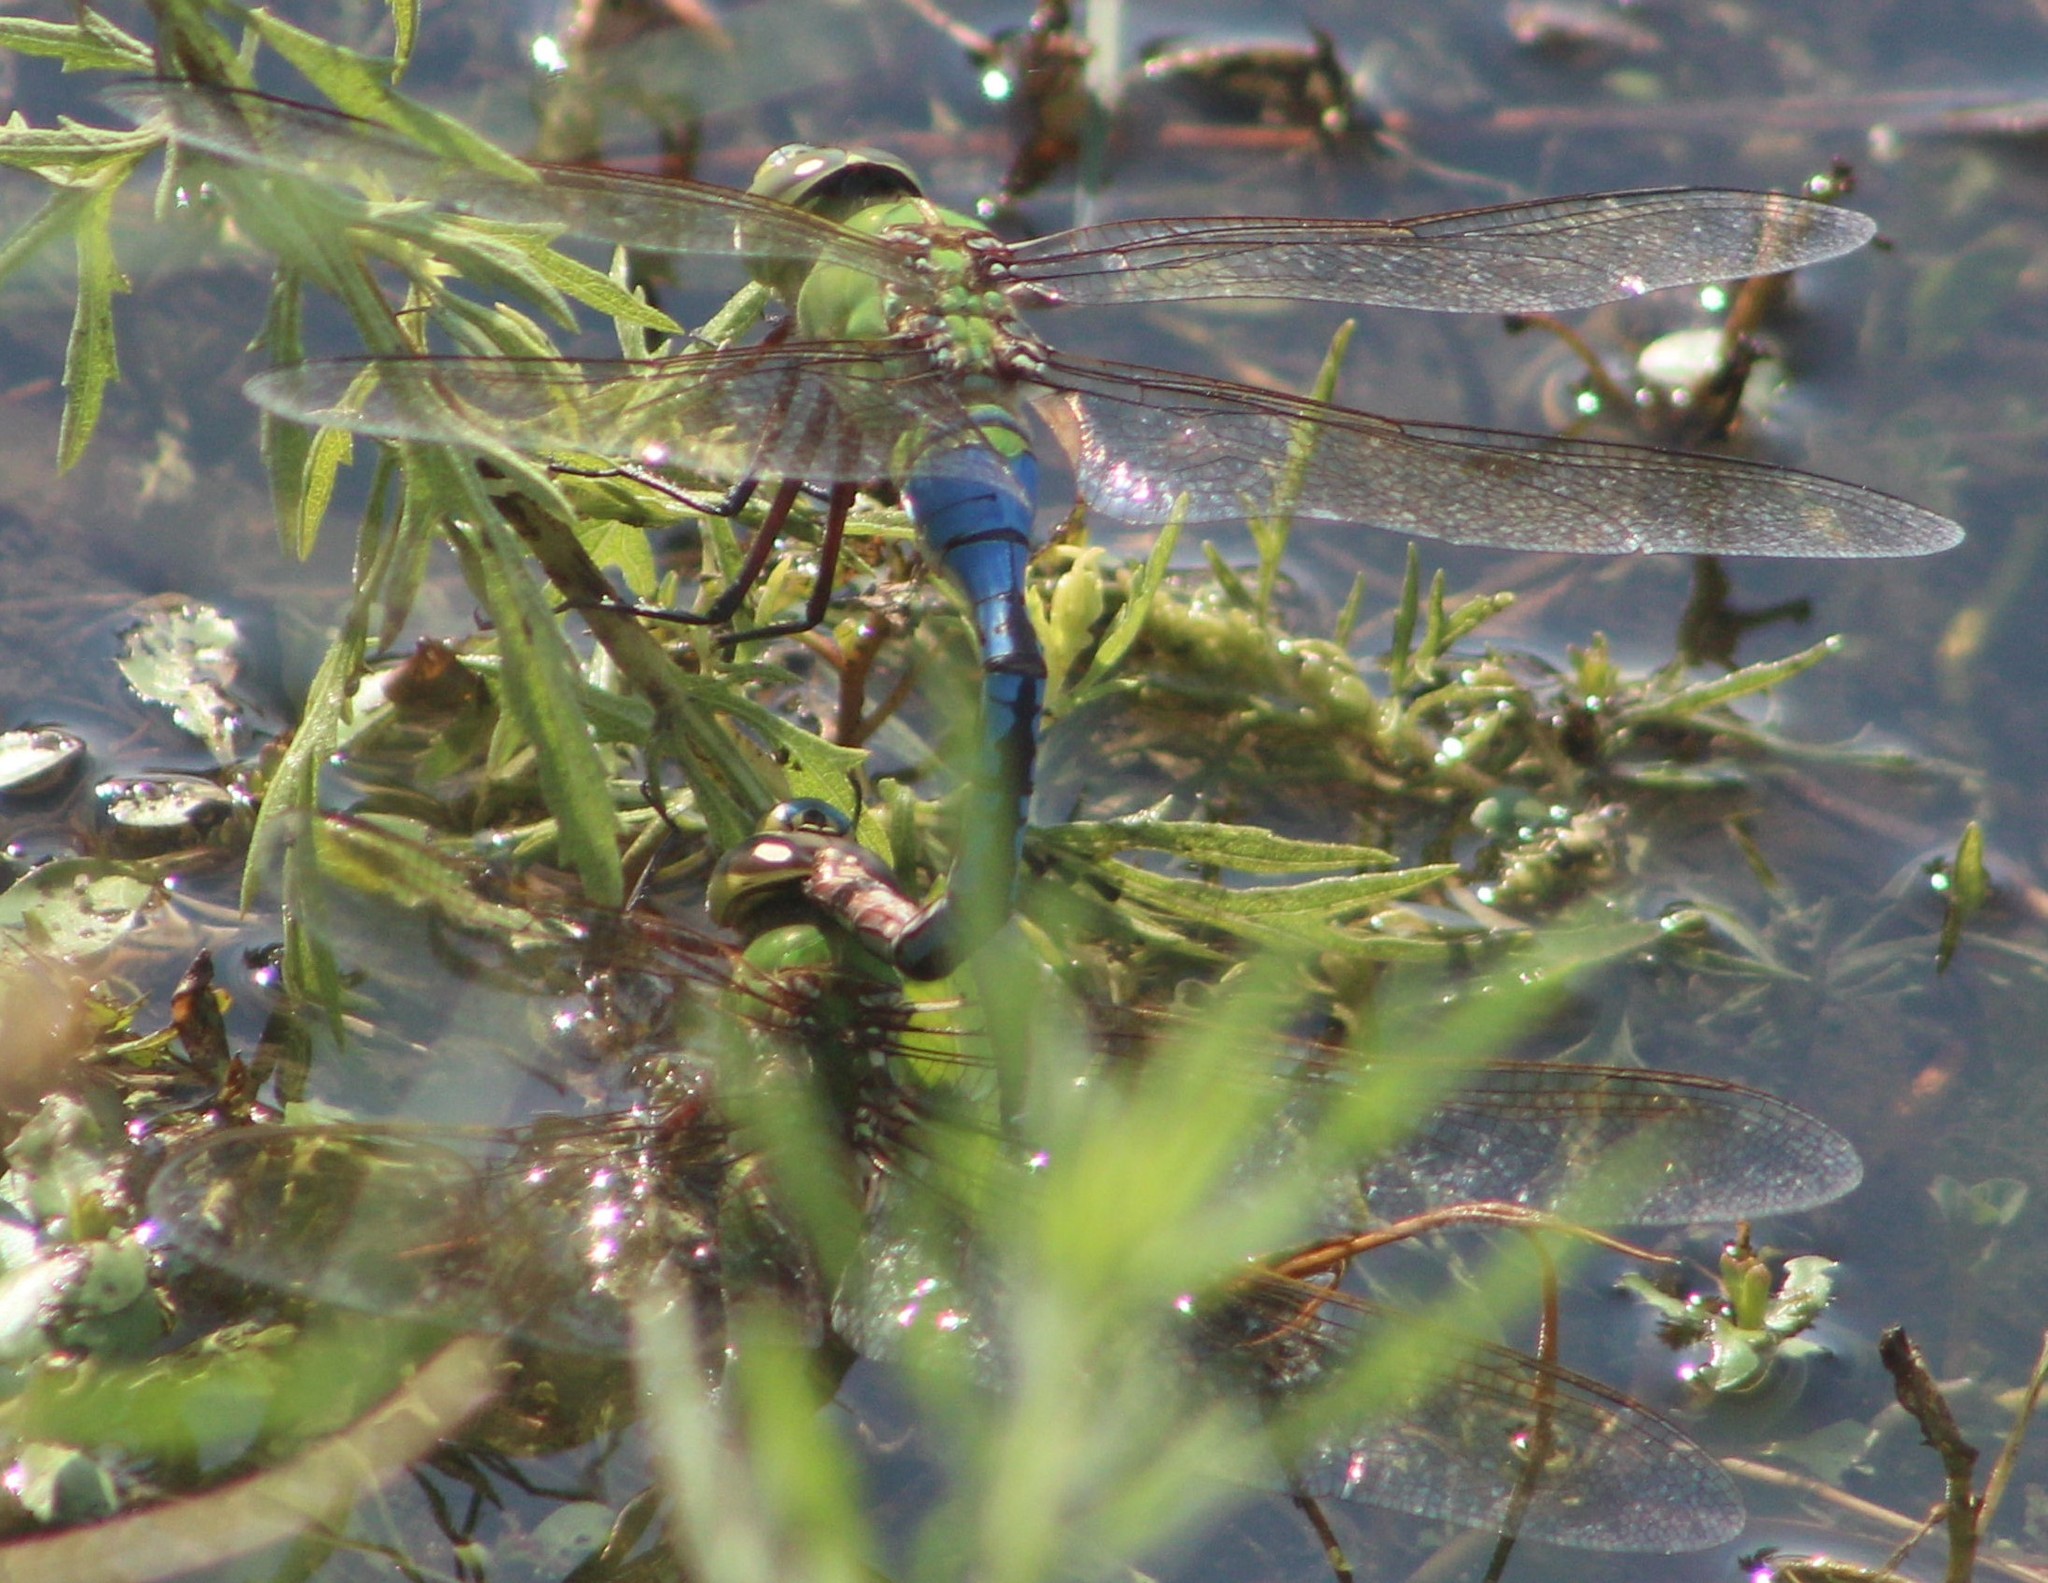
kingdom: Animalia
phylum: Arthropoda
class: Insecta
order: Odonata
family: Aeshnidae
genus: Anax
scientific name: Anax junius
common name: Common green darner
